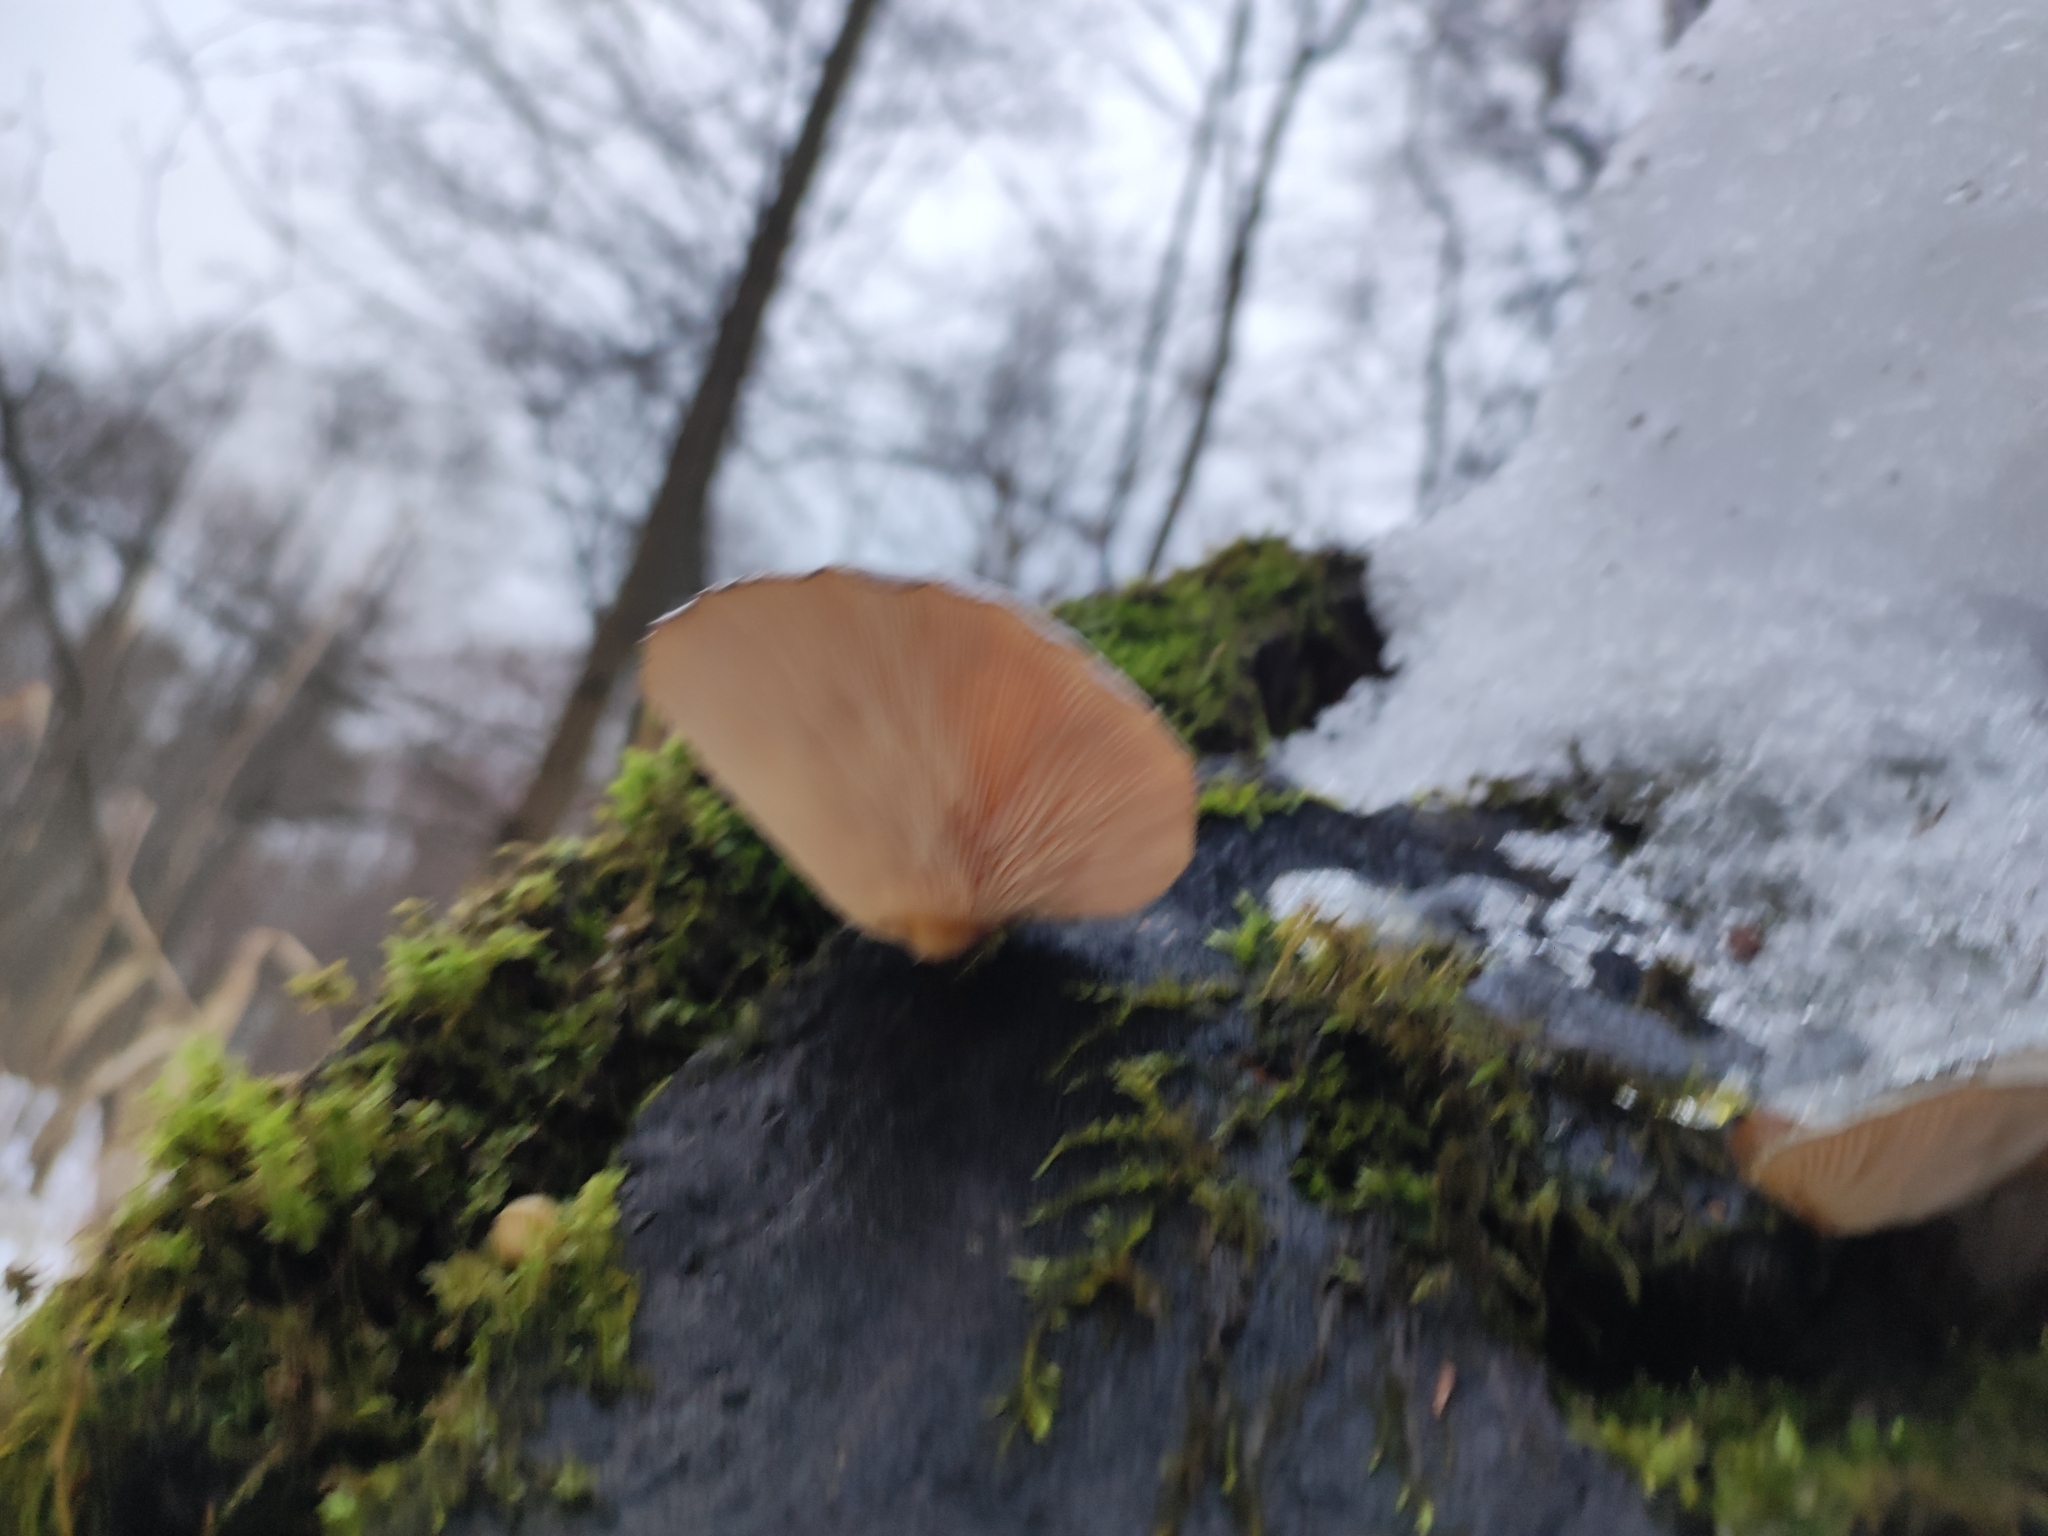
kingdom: Fungi
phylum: Basidiomycota
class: Agaricomycetes
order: Agaricales
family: Sarcomyxaceae
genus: Sarcomyxa
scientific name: Sarcomyxa serotina
